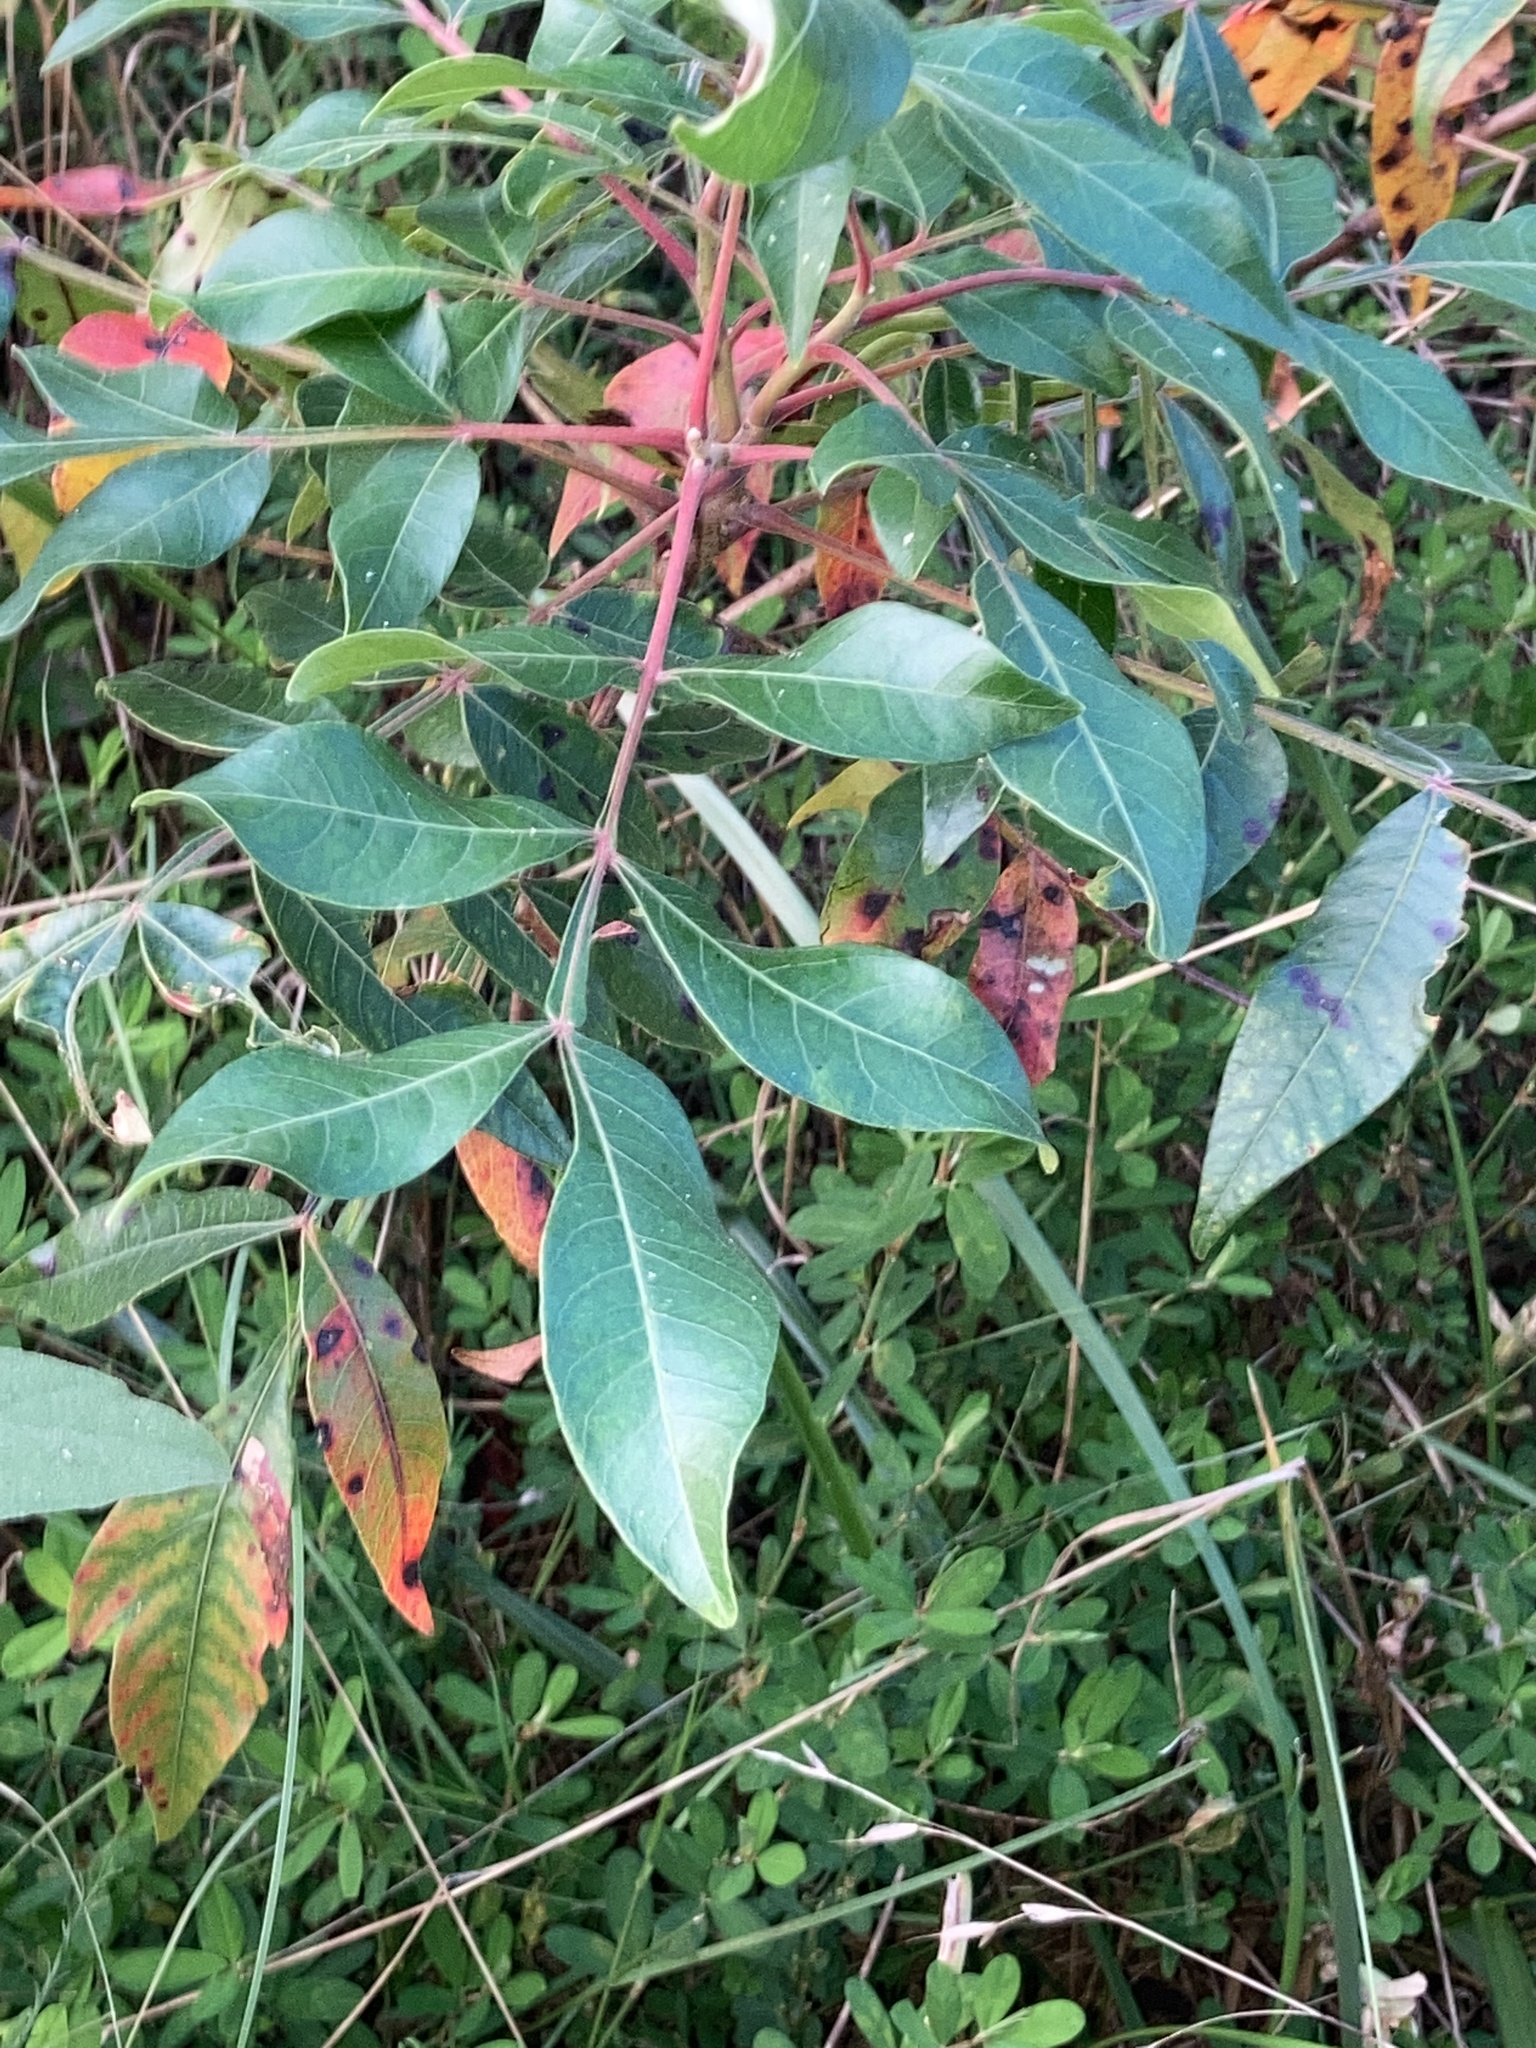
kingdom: Plantae
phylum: Tracheophyta
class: Magnoliopsida
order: Sapindales
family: Anacardiaceae
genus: Rhus
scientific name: Rhus copallina
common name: Shining sumac
